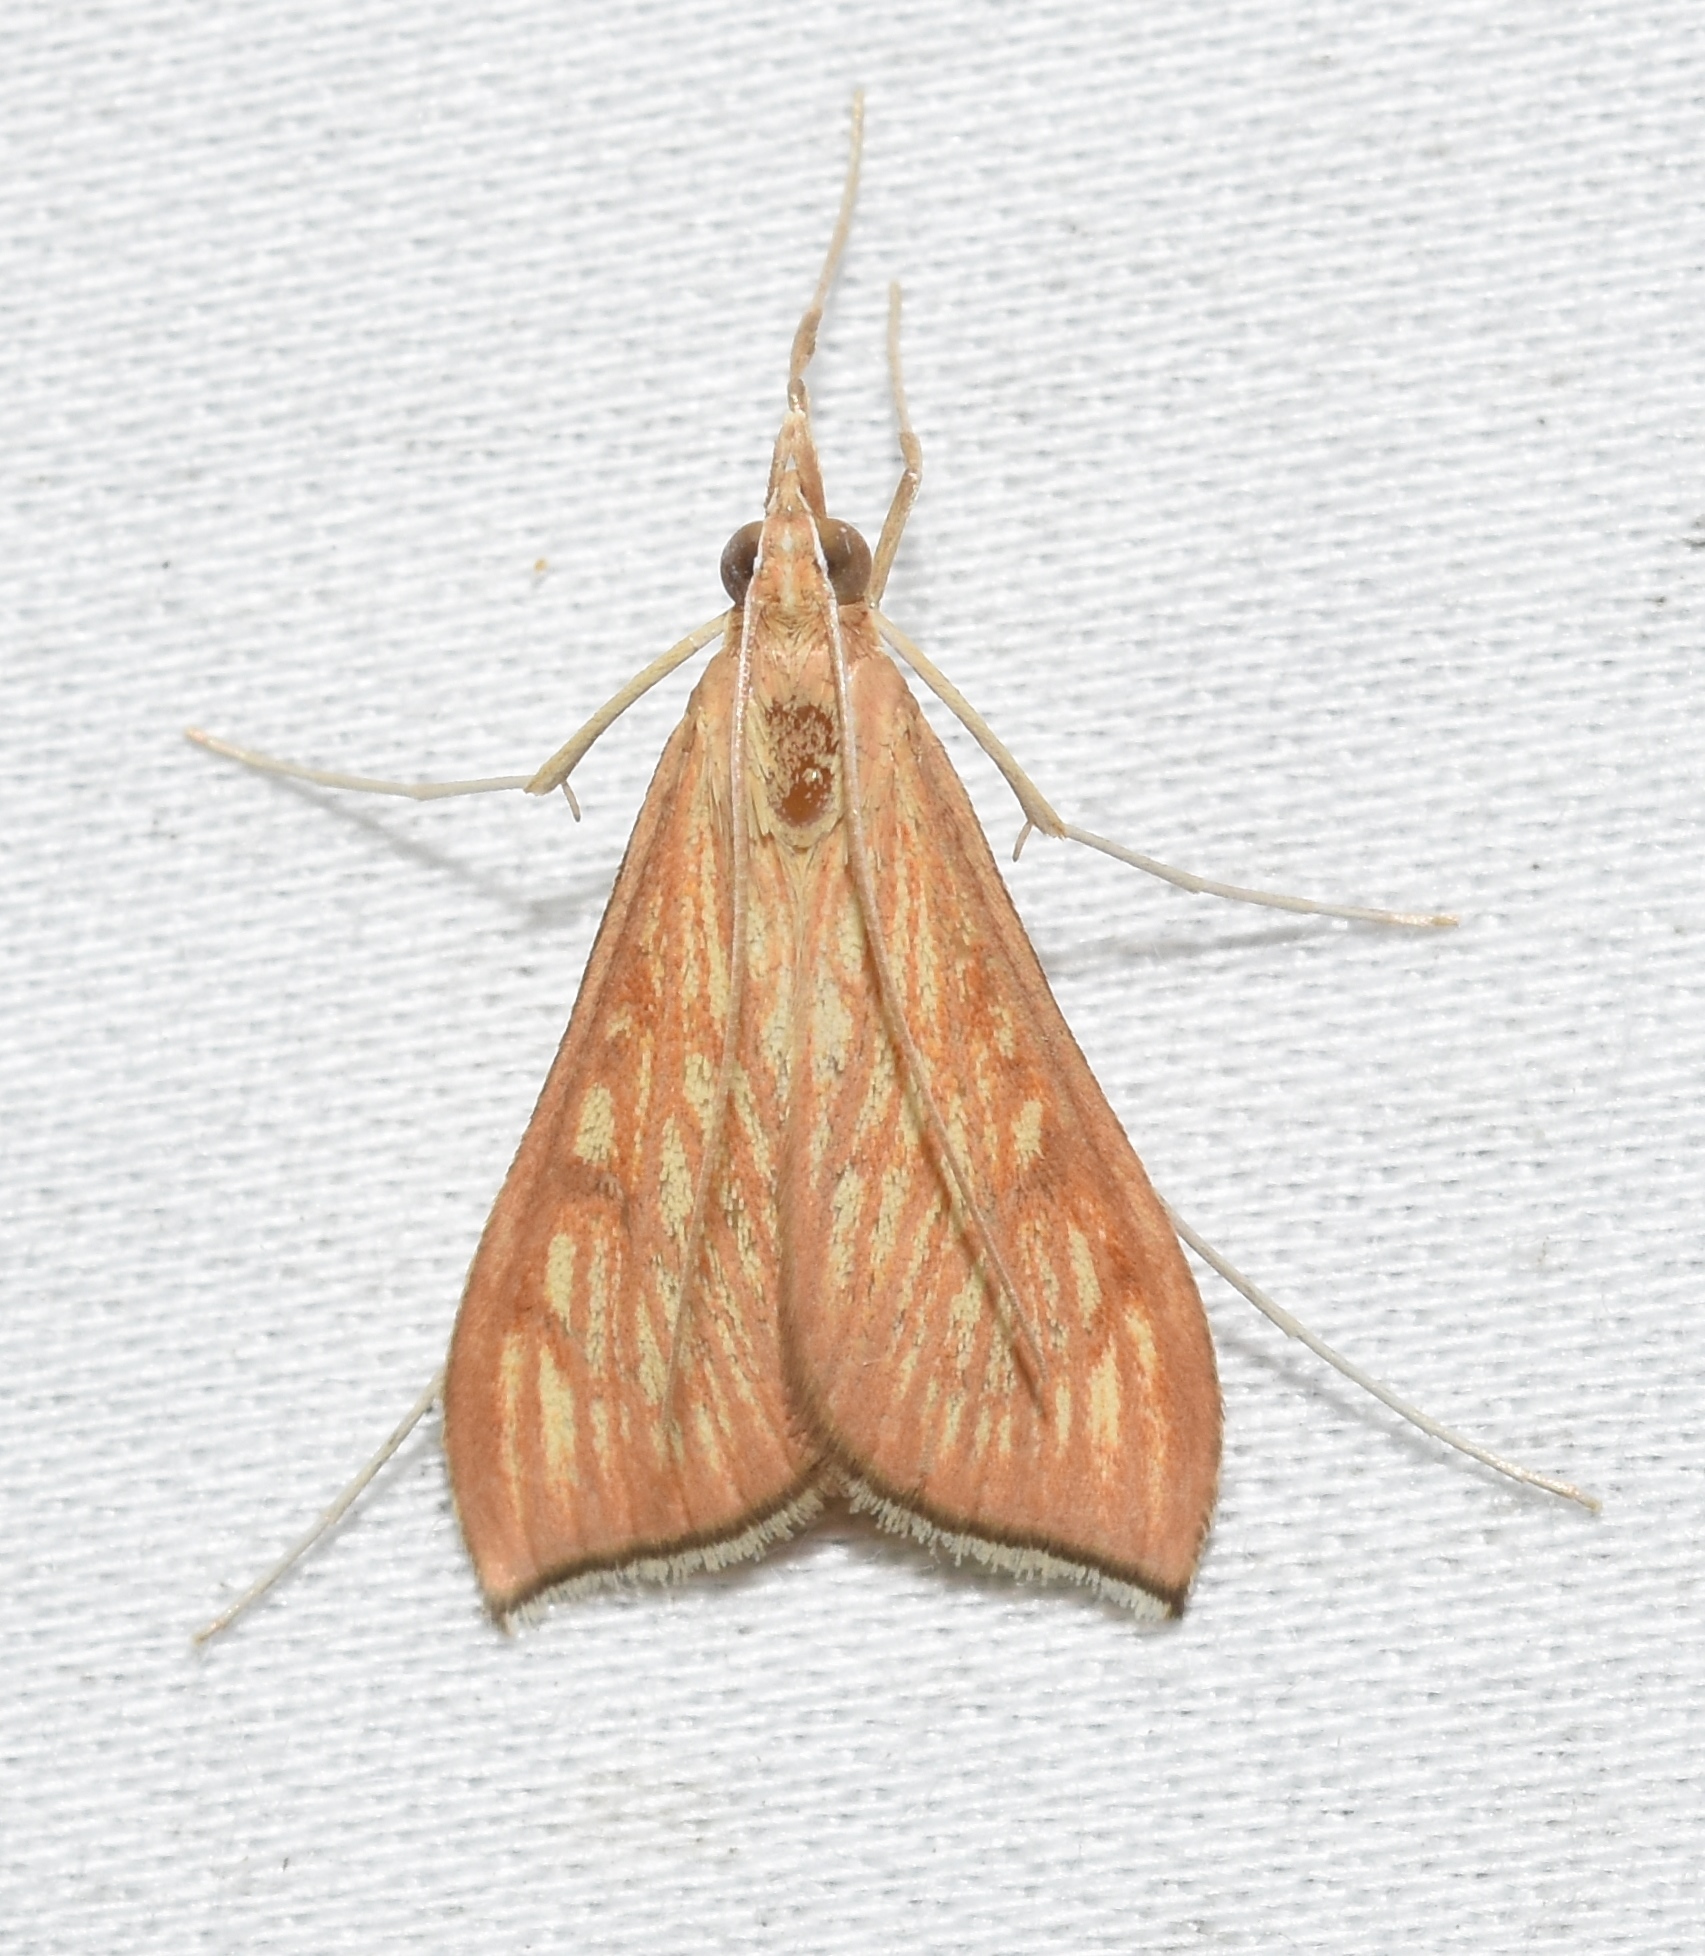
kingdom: Animalia
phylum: Arthropoda
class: Insecta
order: Lepidoptera
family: Crambidae
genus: Antigastra
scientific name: Antigastra catalaunalis
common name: Spanish dot
